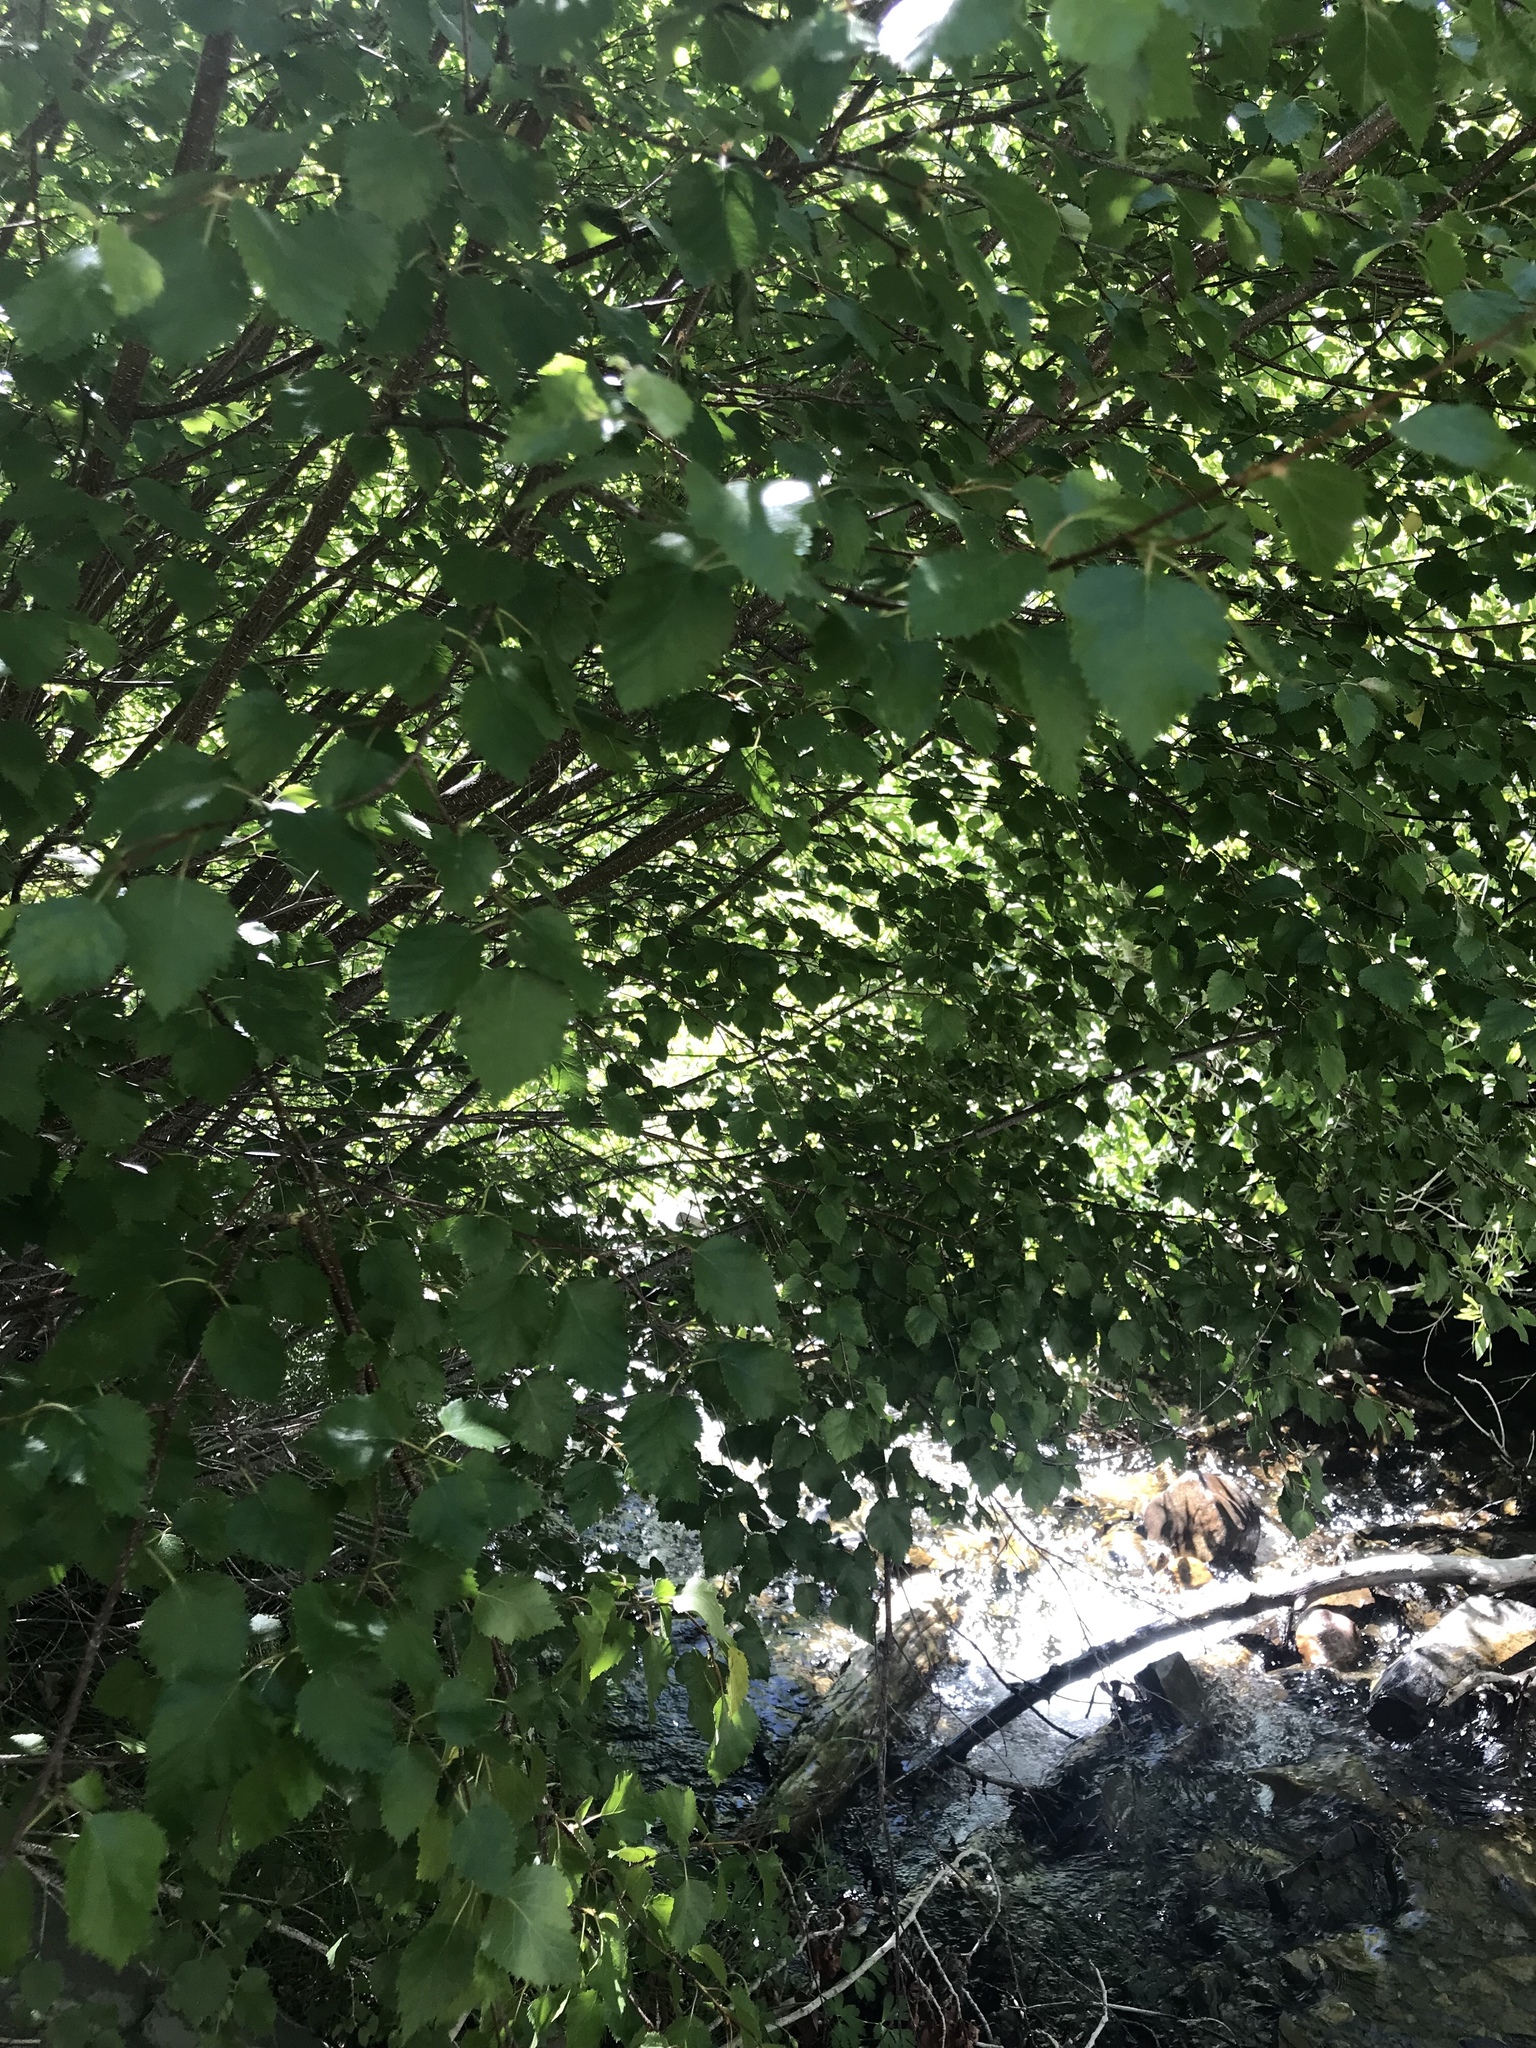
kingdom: Plantae
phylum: Tracheophyta
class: Magnoliopsida
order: Fagales
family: Betulaceae
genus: Betula
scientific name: Betula occidentalis
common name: River birch
